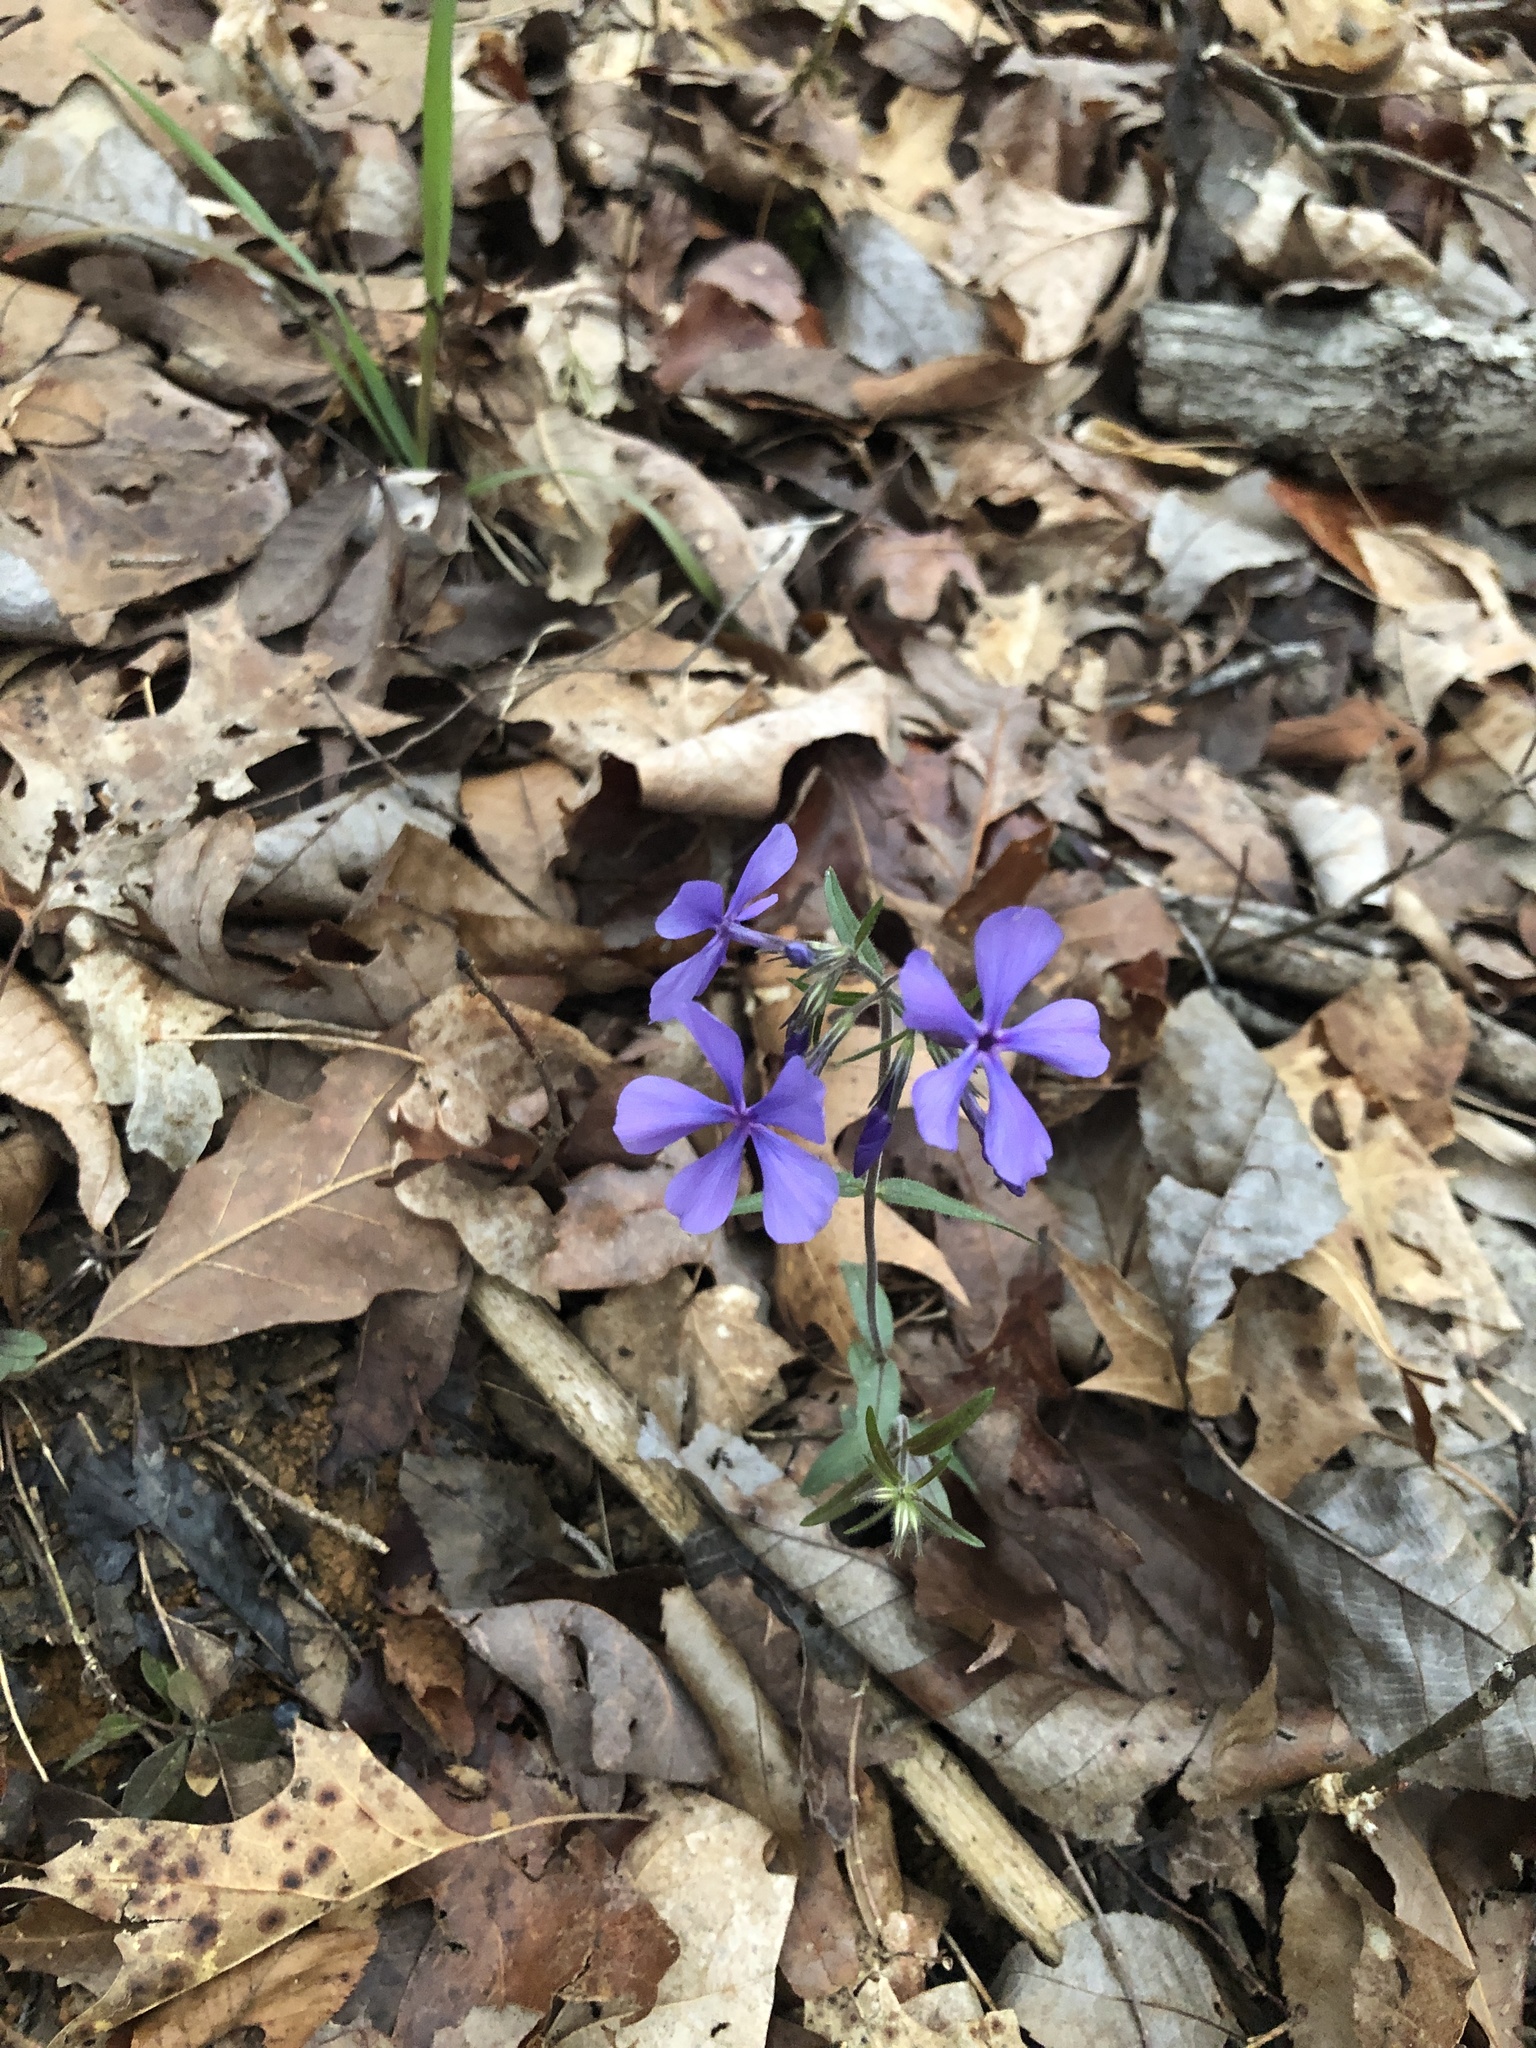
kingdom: Plantae
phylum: Tracheophyta
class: Magnoliopsida
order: Ericales
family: Polemoniaceae
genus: Phlox
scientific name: Phlox divaricata
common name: Blue phlox
